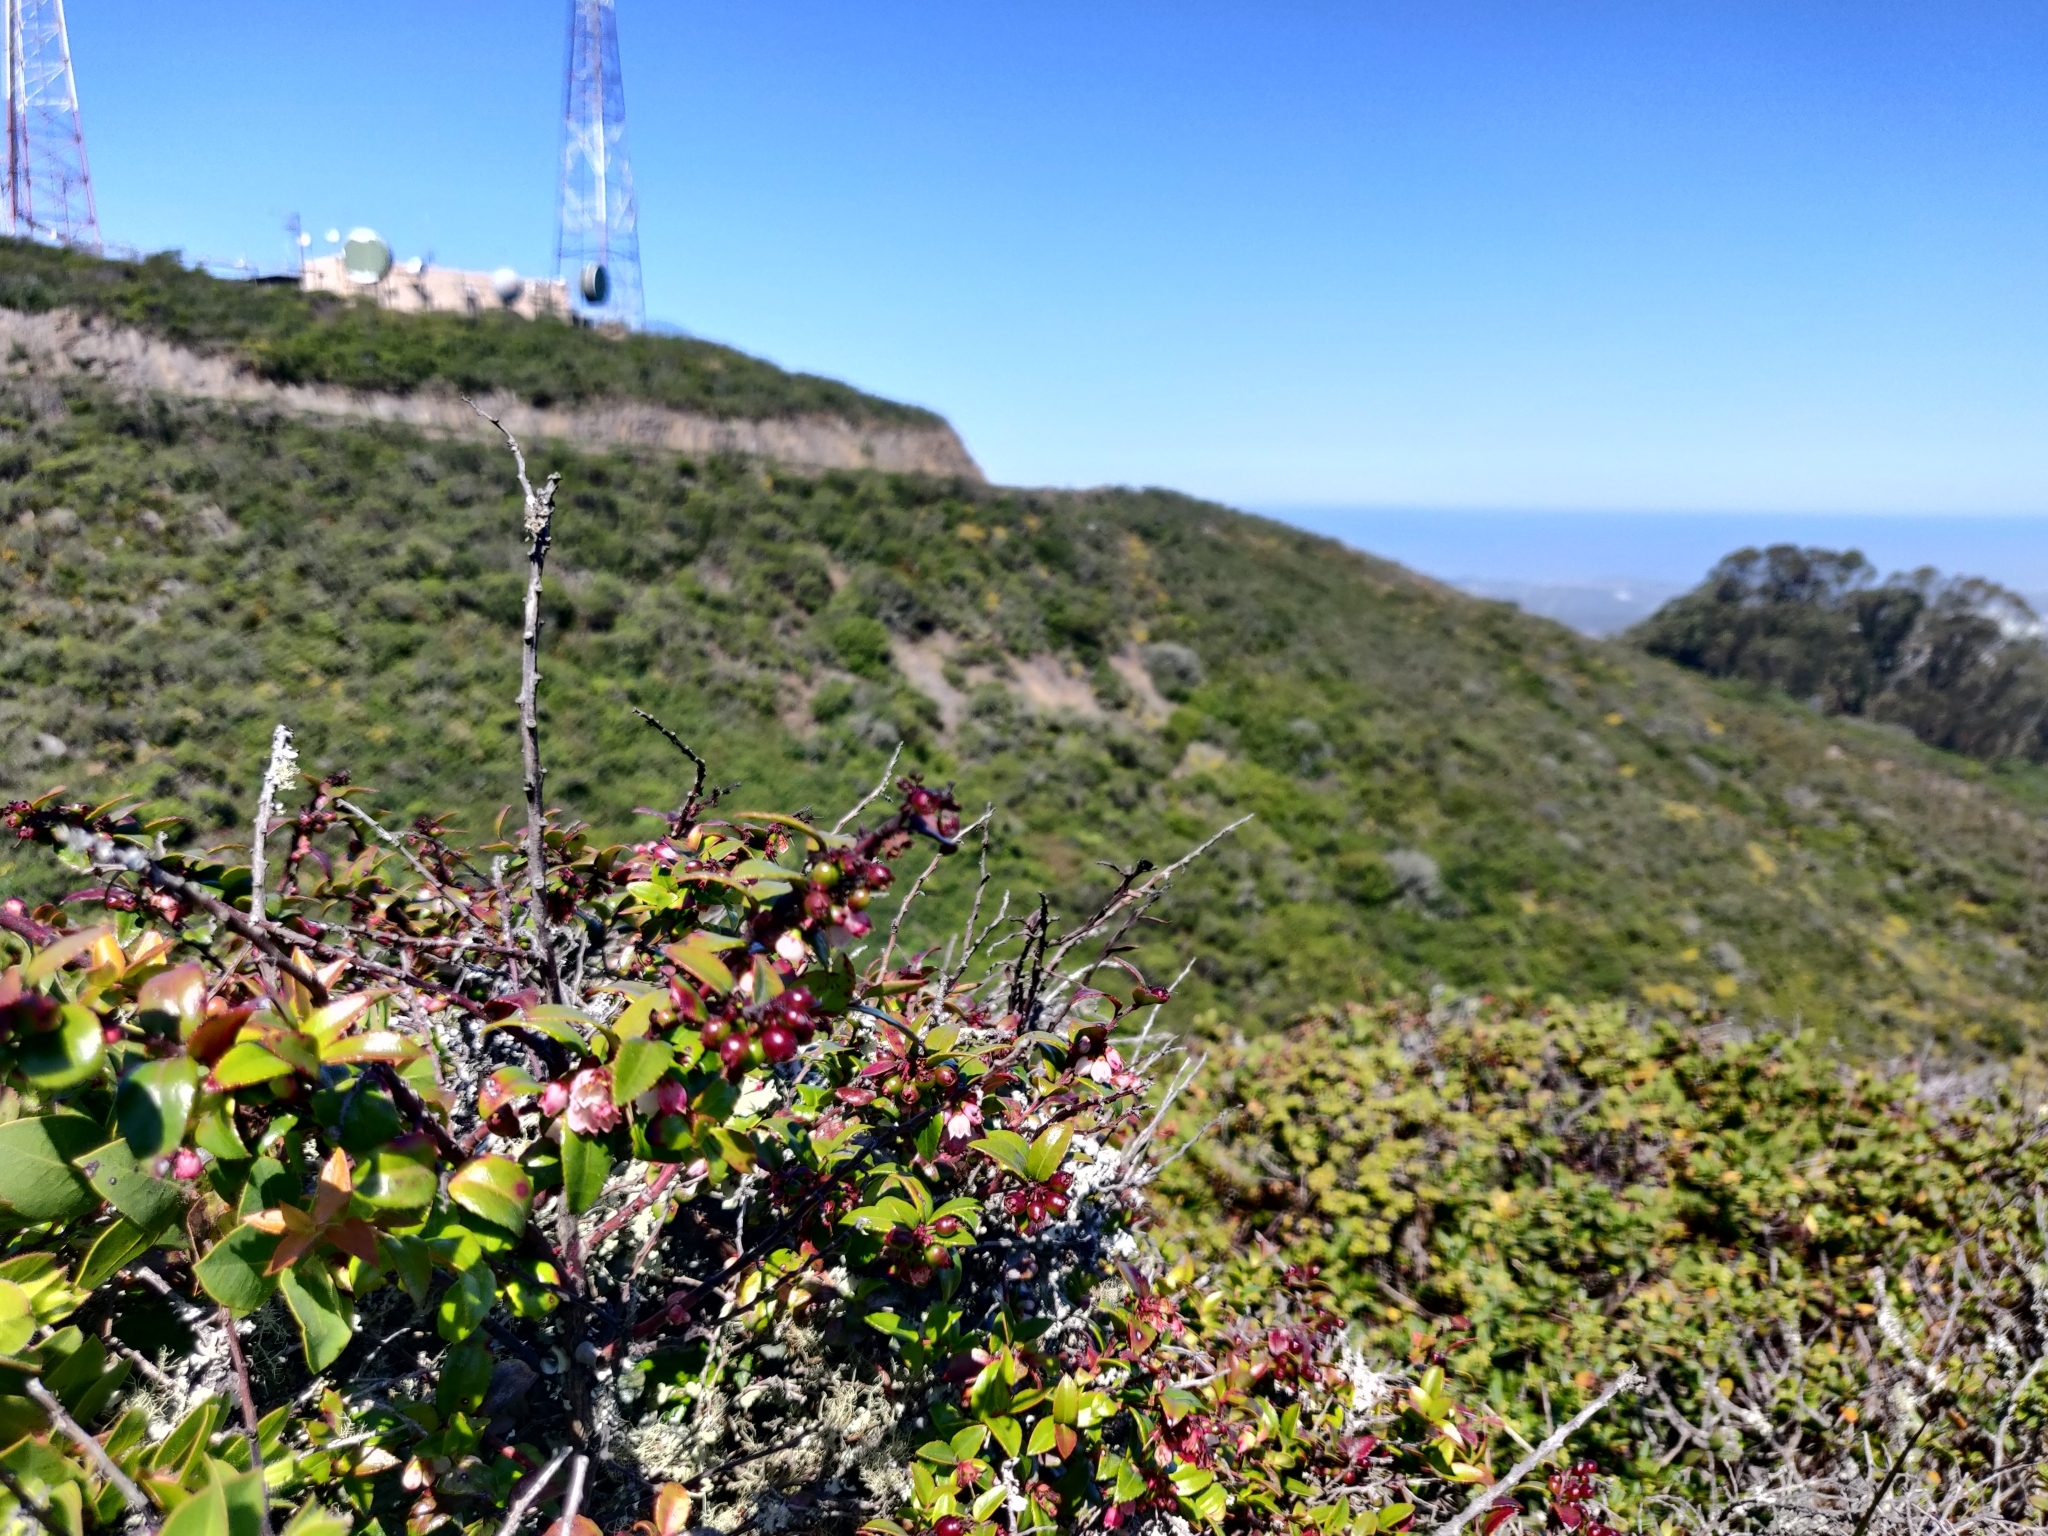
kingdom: Plantae
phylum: Tracheophyta
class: Magnoliopsida
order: Ericales
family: Ericaceae
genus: Vaccinium
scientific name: Vaccinium ovatum
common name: California-huckleberry
